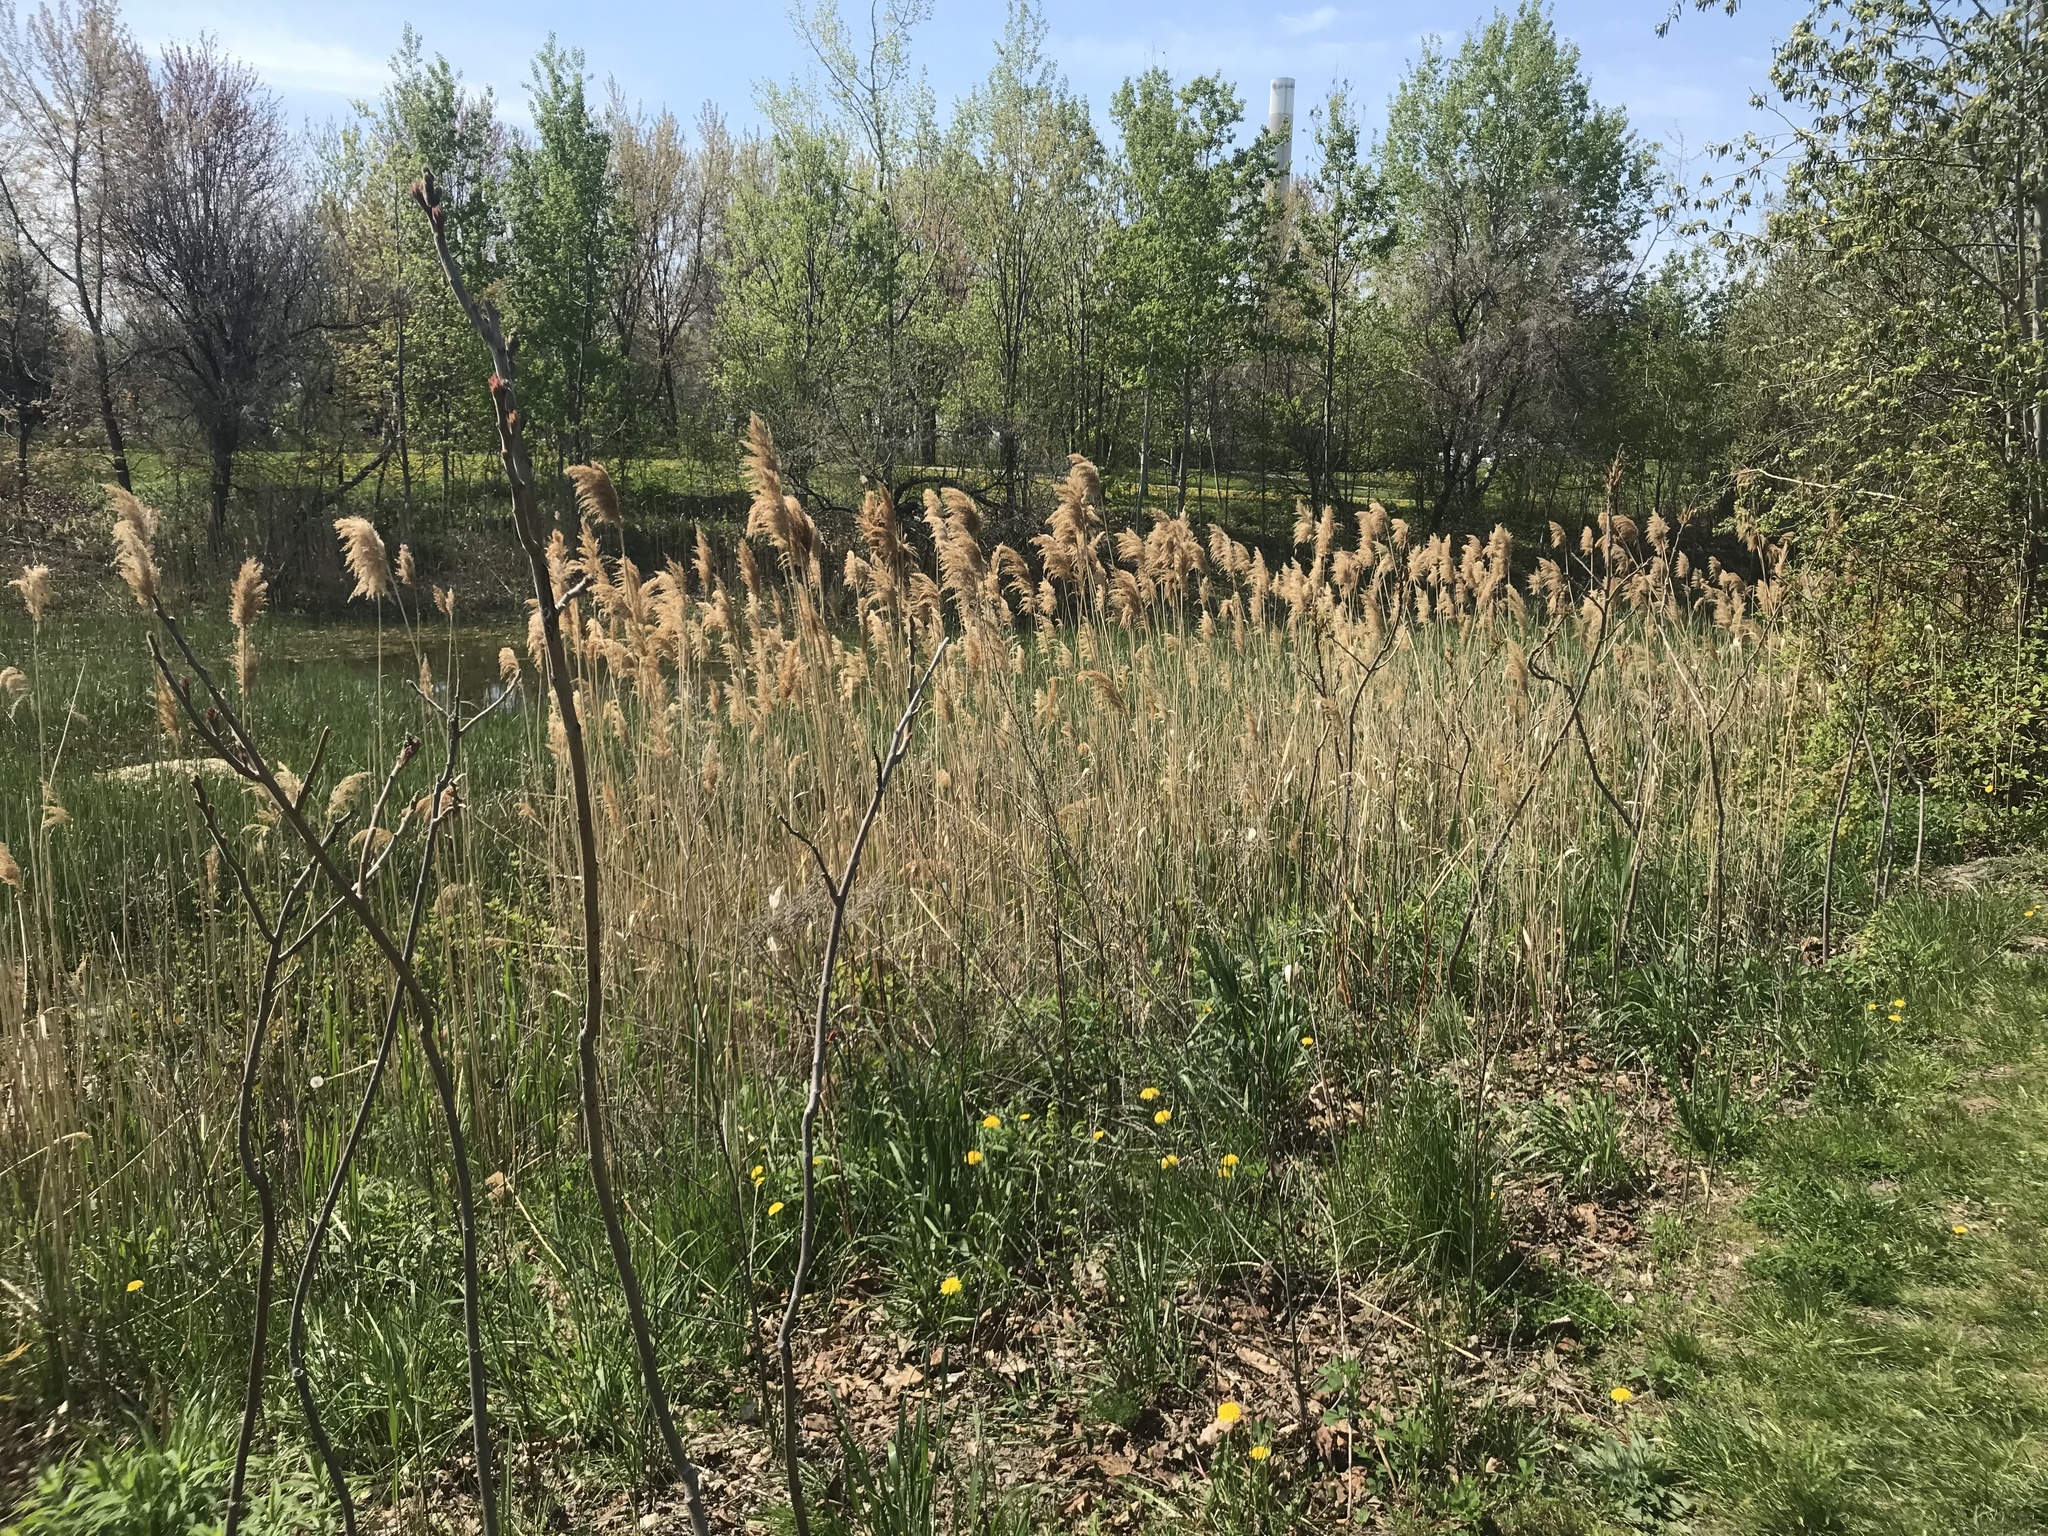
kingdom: Plantae
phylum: Tracheophyta
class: Liliopsida
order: Poales
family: Poaceae
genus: Phragmites
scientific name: Phragmites australis
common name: Common reed
